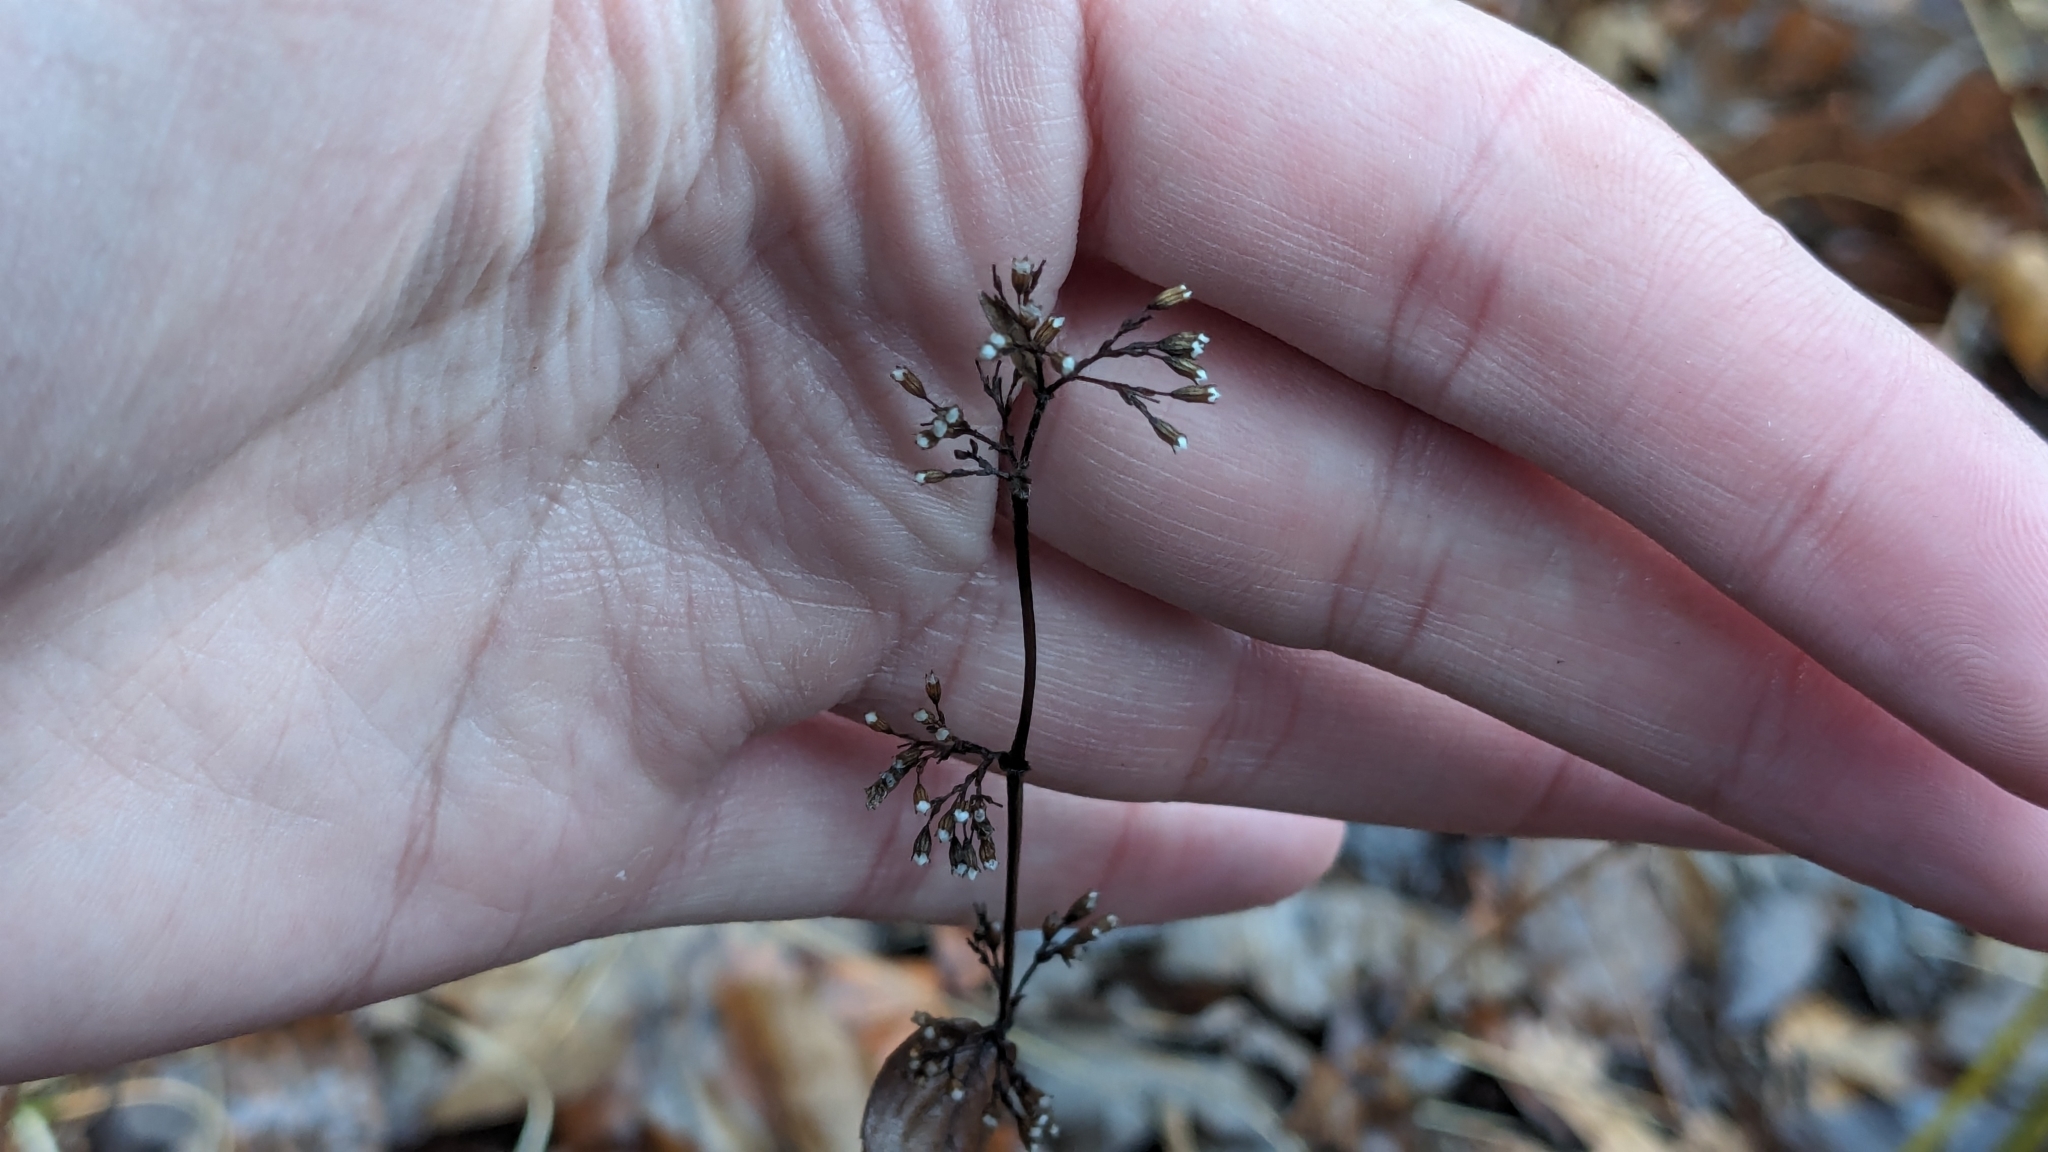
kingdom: Plantae
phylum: Tracheophyta
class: Magnoliopsida
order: Lamiales
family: Lamiaceae
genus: Cunila
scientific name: Cunila origanoides
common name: American dittany
